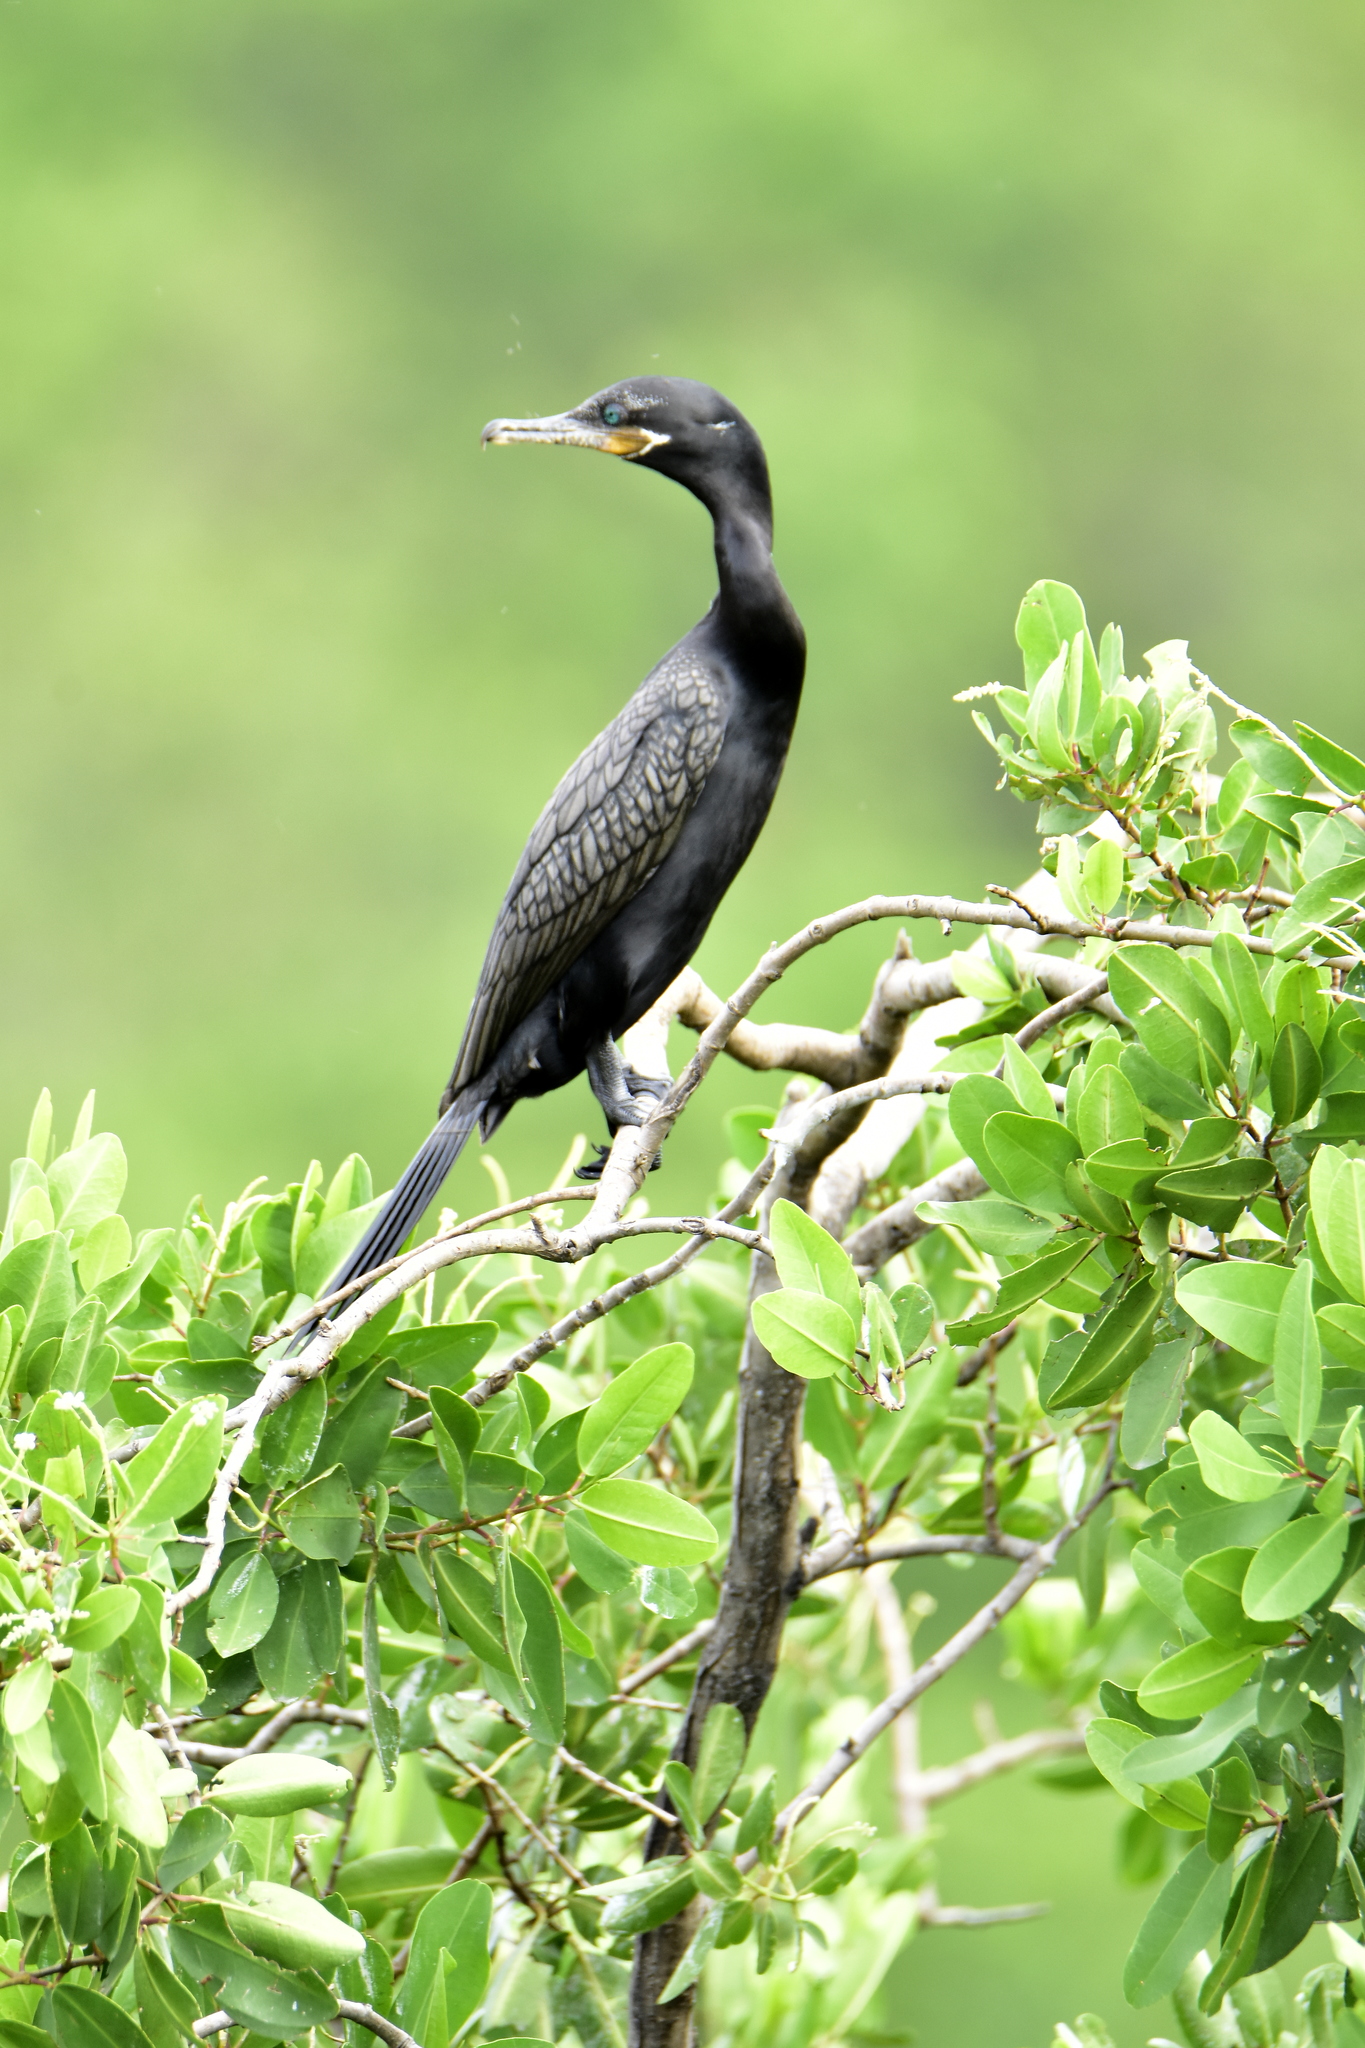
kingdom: Animalia
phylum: Chordata
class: Aves
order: Suliformes
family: Phalacrocoracidae
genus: Phalacrocorax
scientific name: Phalacrocorax brasilianus
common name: Neotropic cormorant
